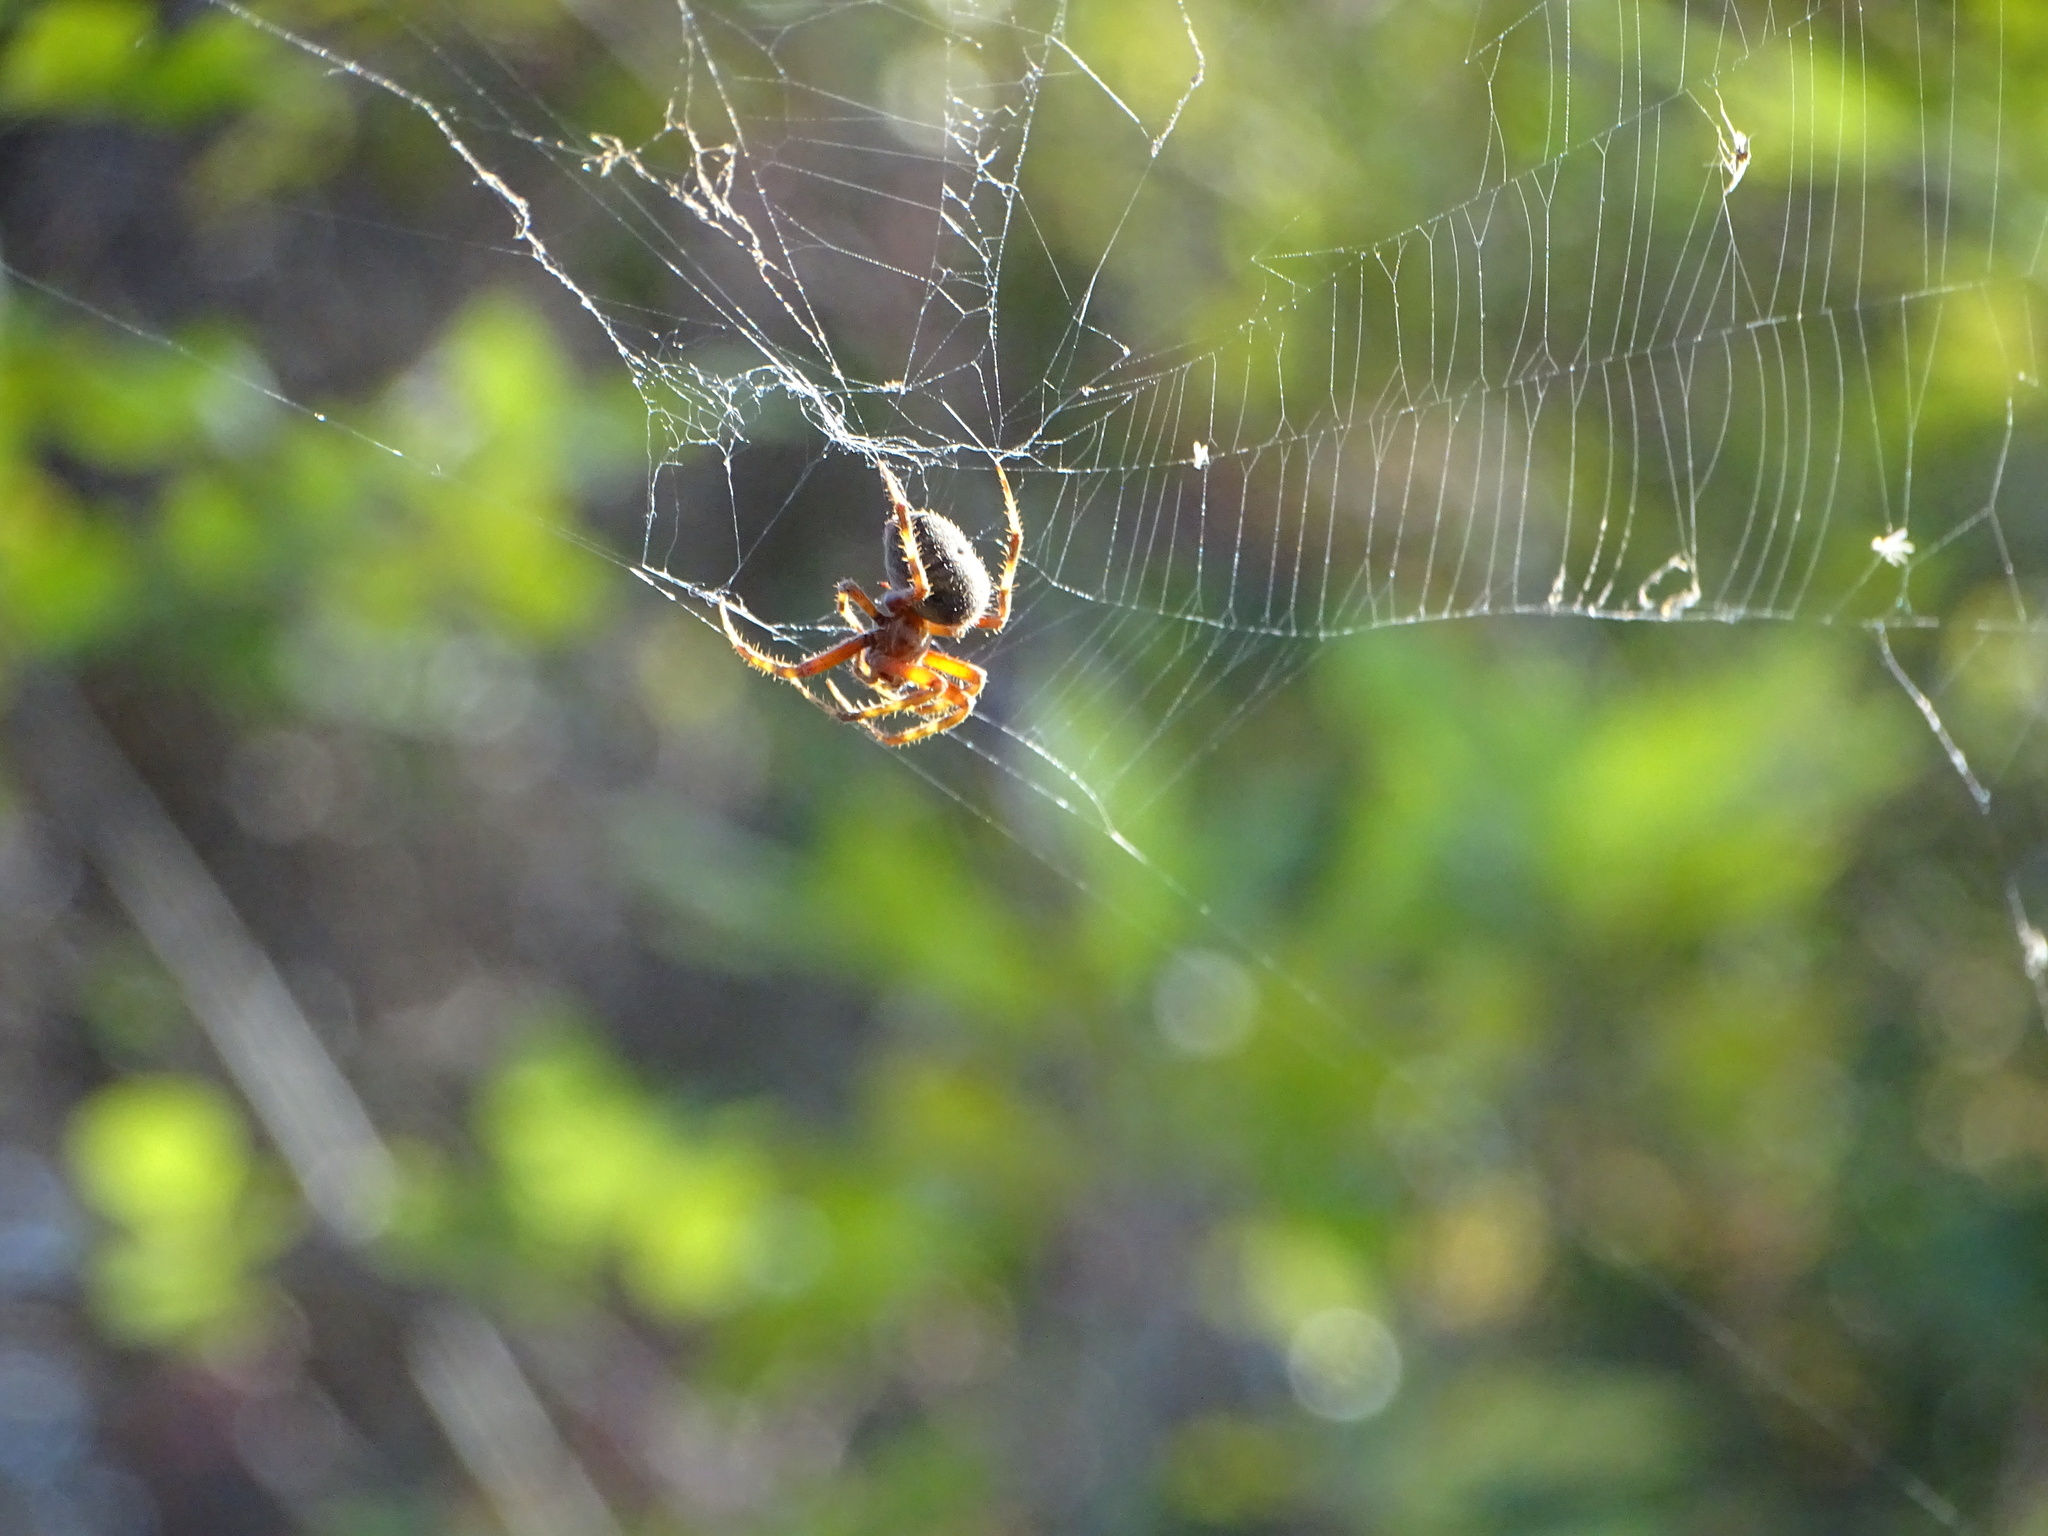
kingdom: Animalia
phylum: Arthropoda
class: Arachnida
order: Araneae
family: Araneidae
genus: Neoscona
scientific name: Neoscona crucifera
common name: Spotted orbweaver
